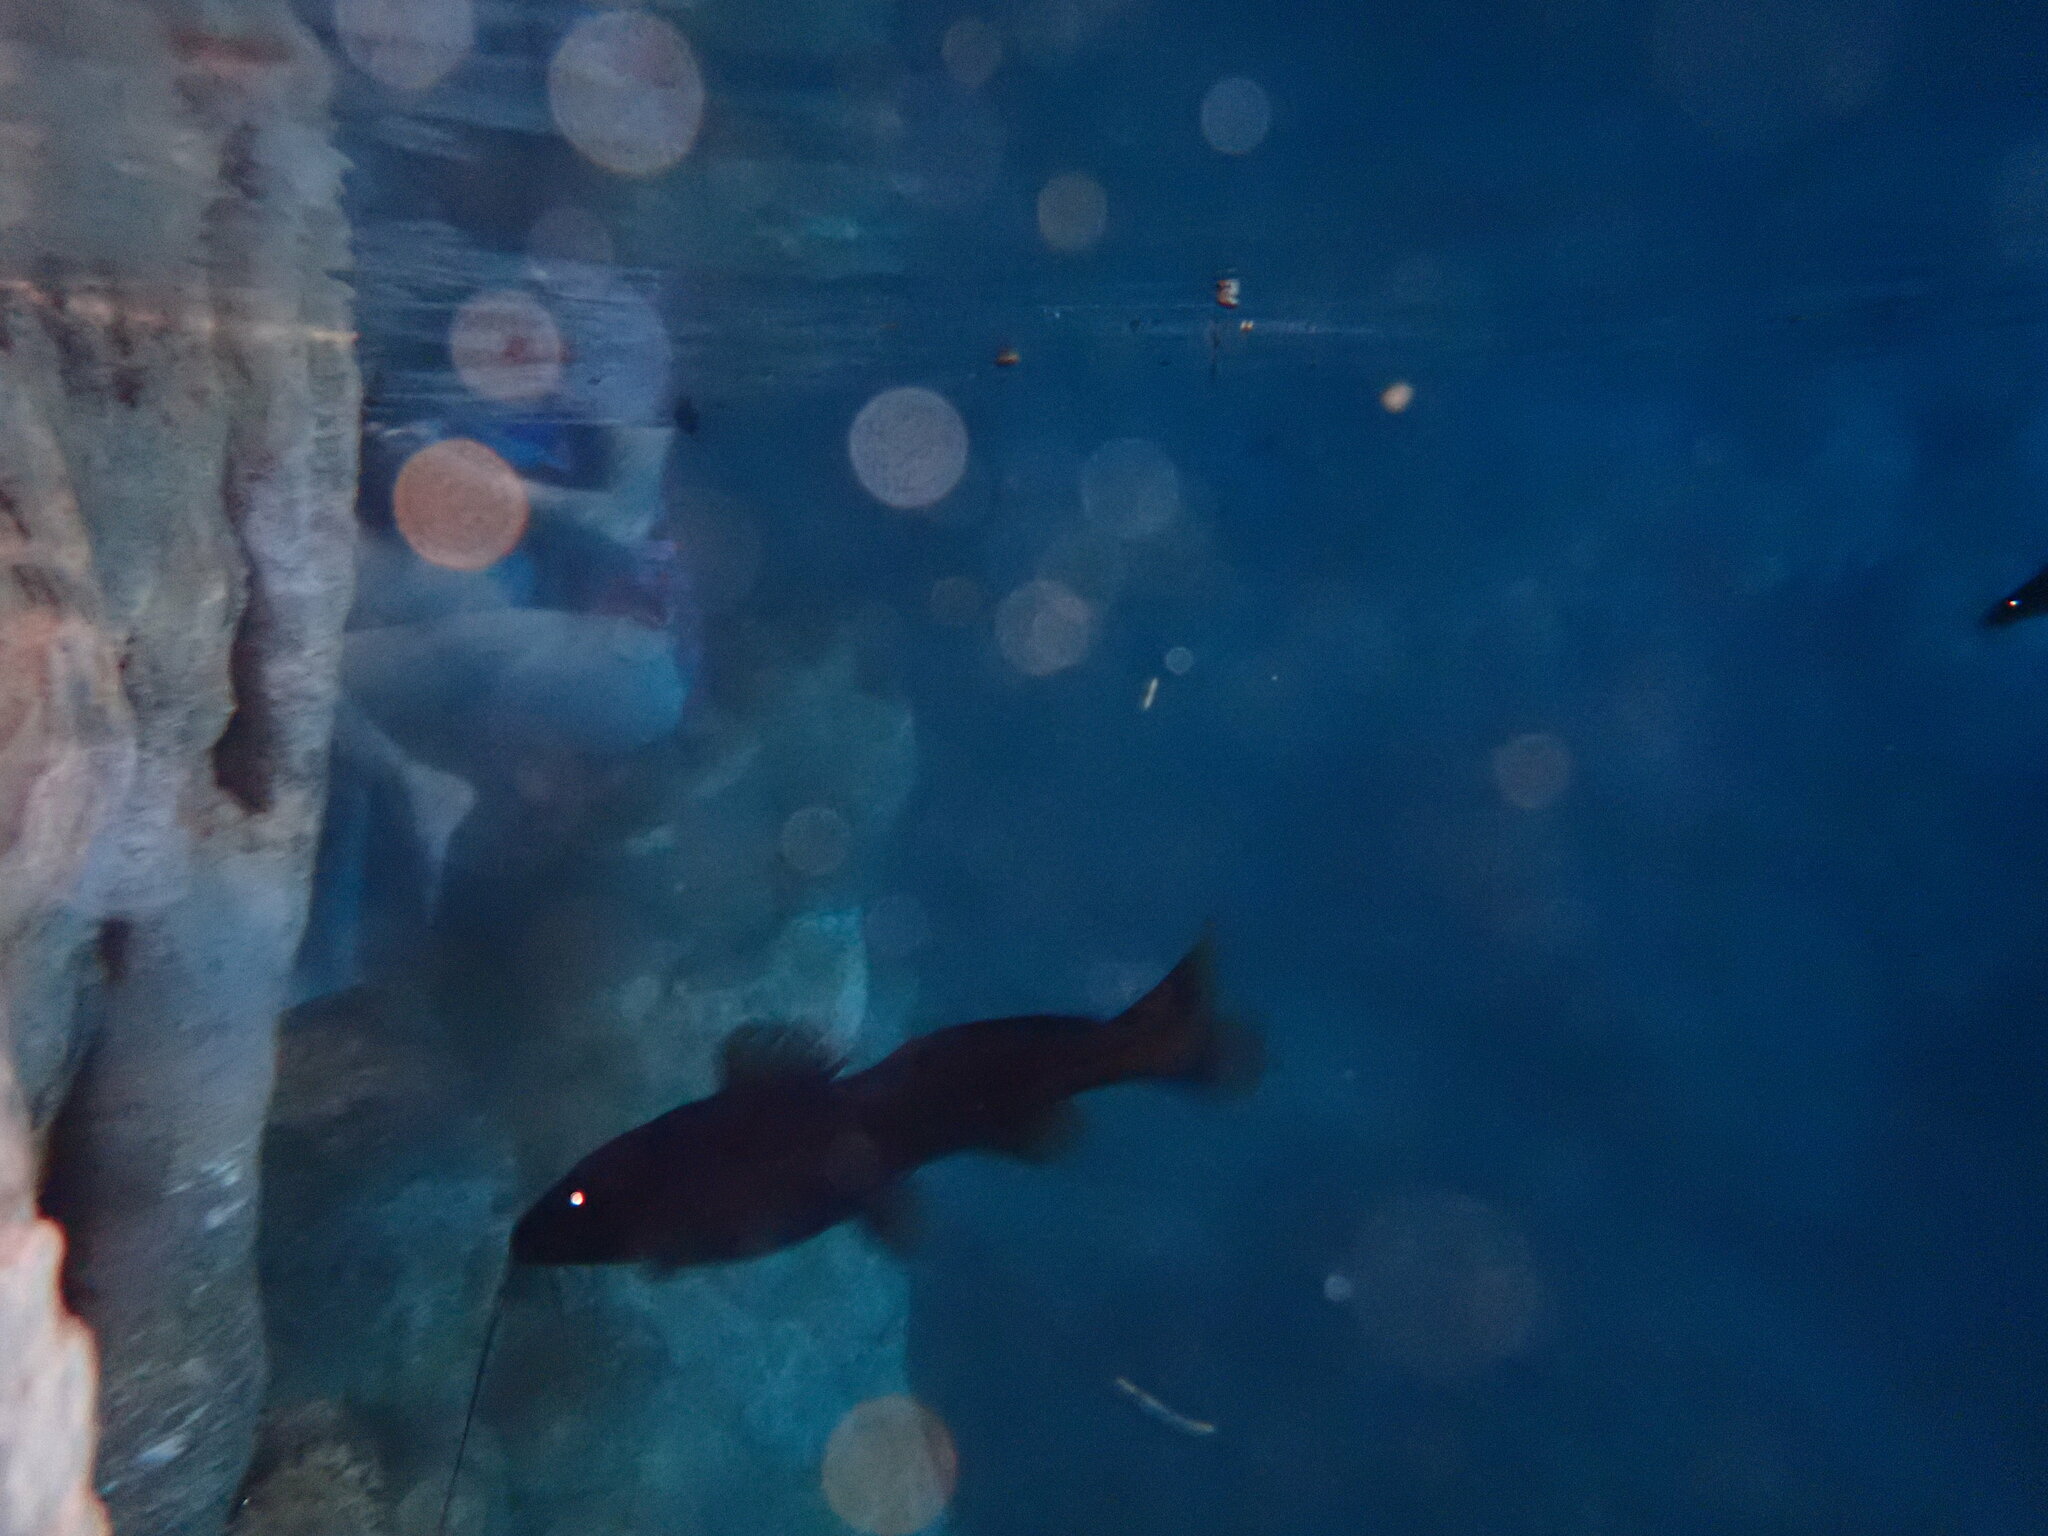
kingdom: Animalia
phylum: Chordata
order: Siluriformes
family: Heptapteridae
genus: Rhamdia
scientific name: Rhamdia guatemalensis
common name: Pale catfish
